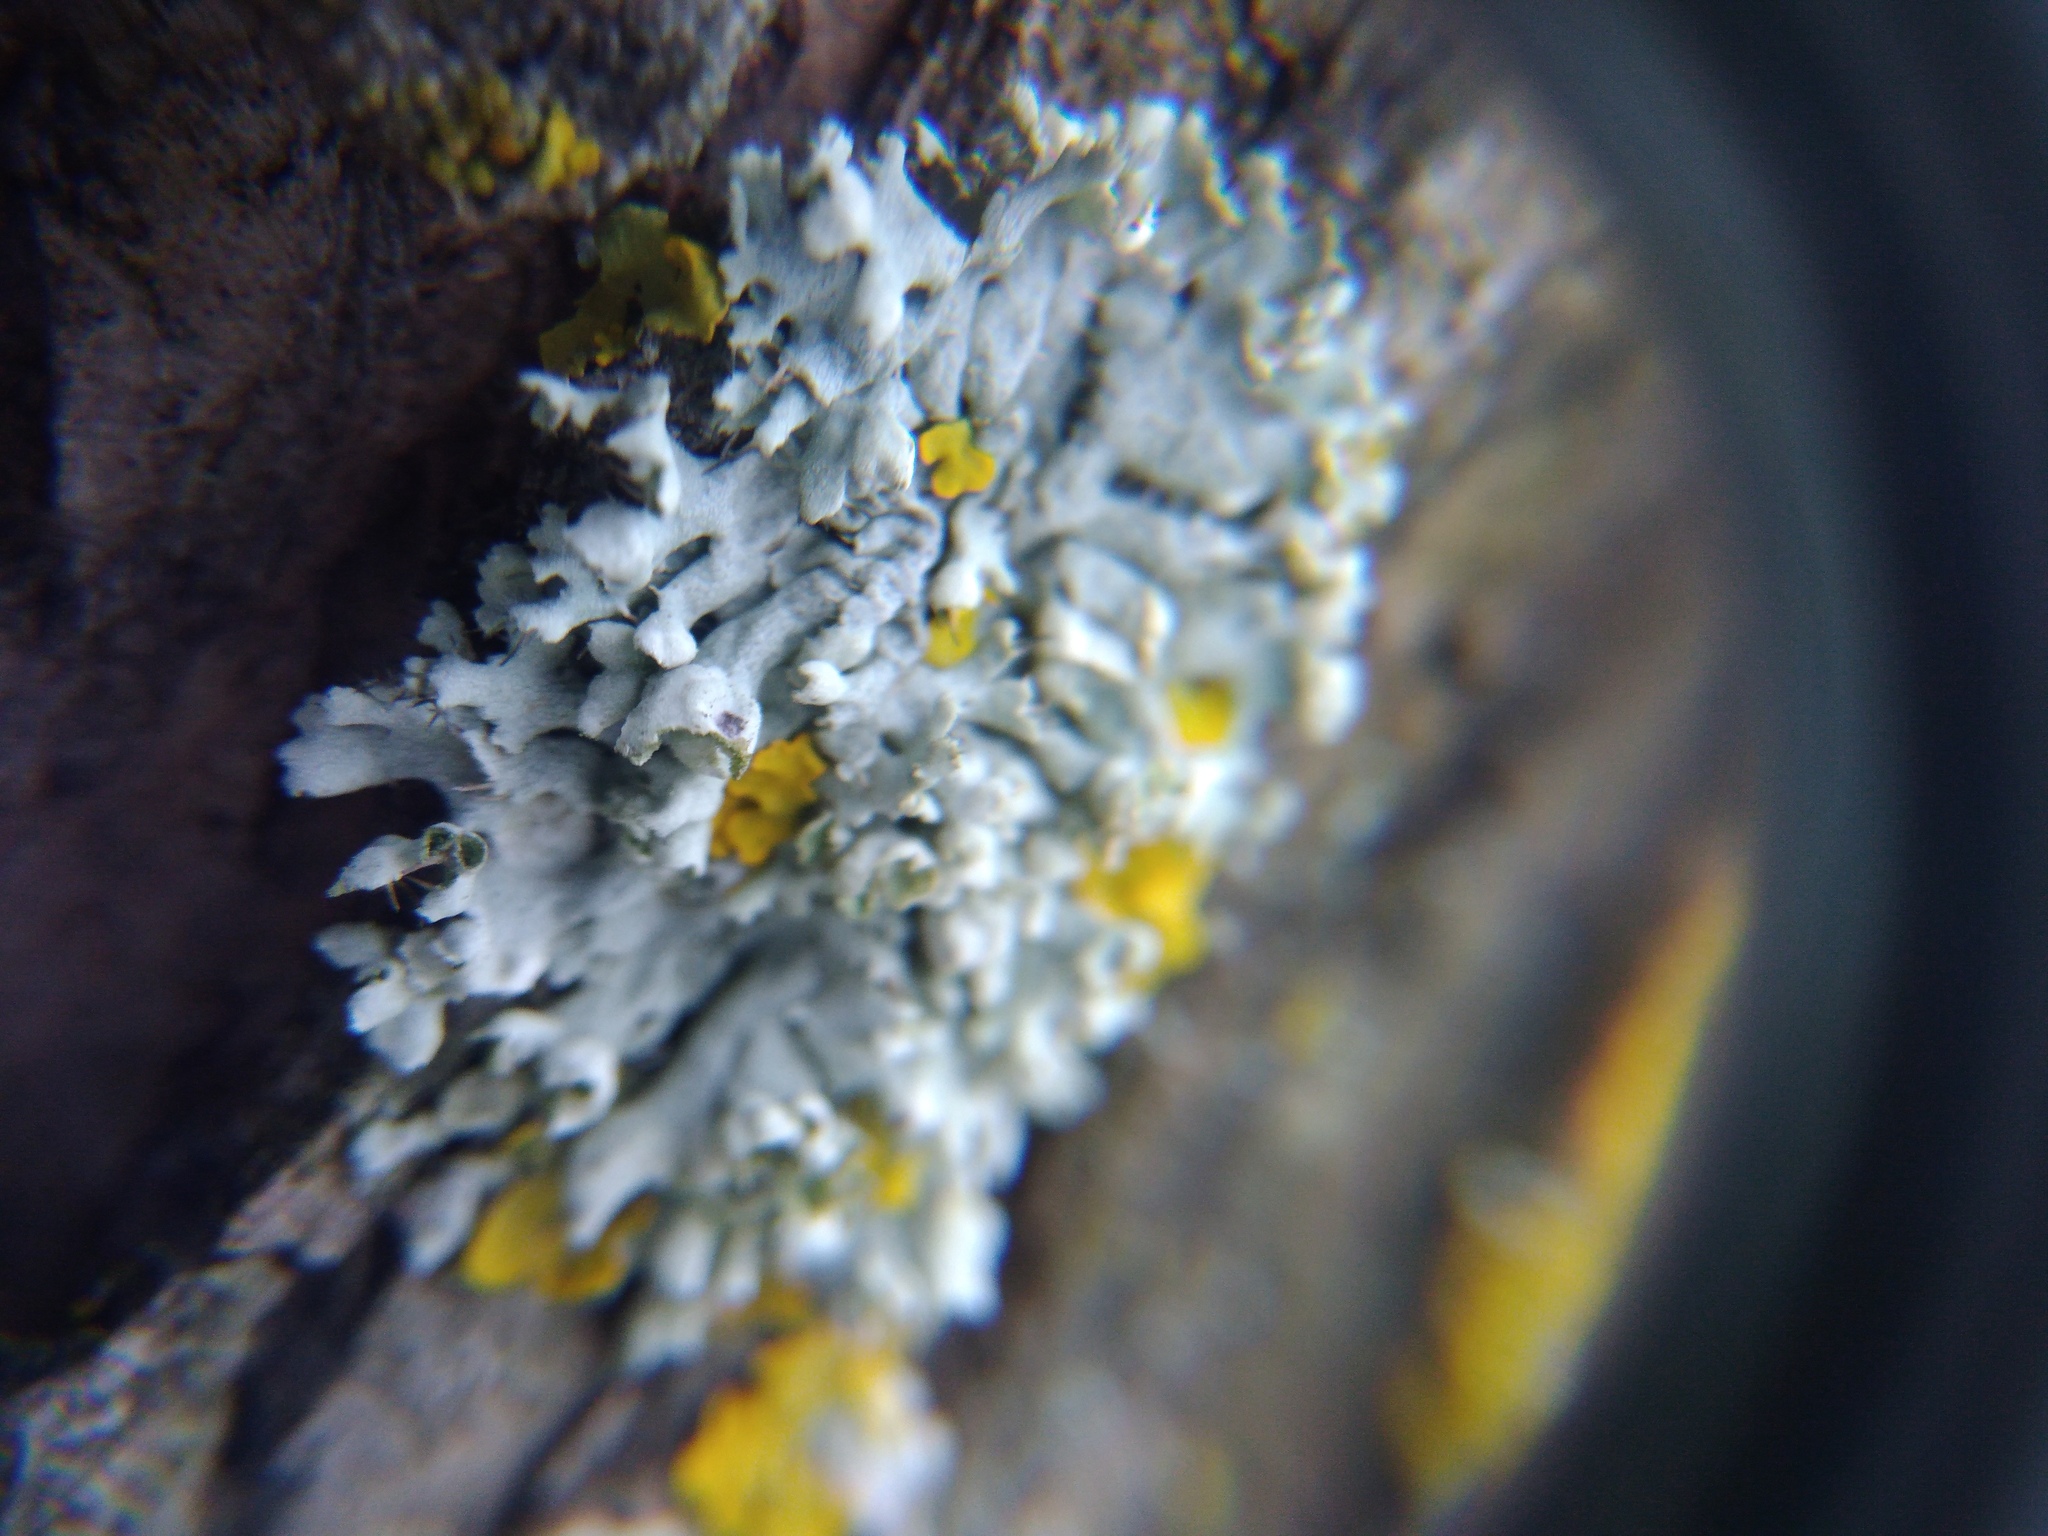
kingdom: Fungi
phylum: Ascomycota
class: Lecanoromycetes
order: Caliciales
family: Physciaceae
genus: Physcia
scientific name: Physcia adscendens
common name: Hooded rosette lichen
